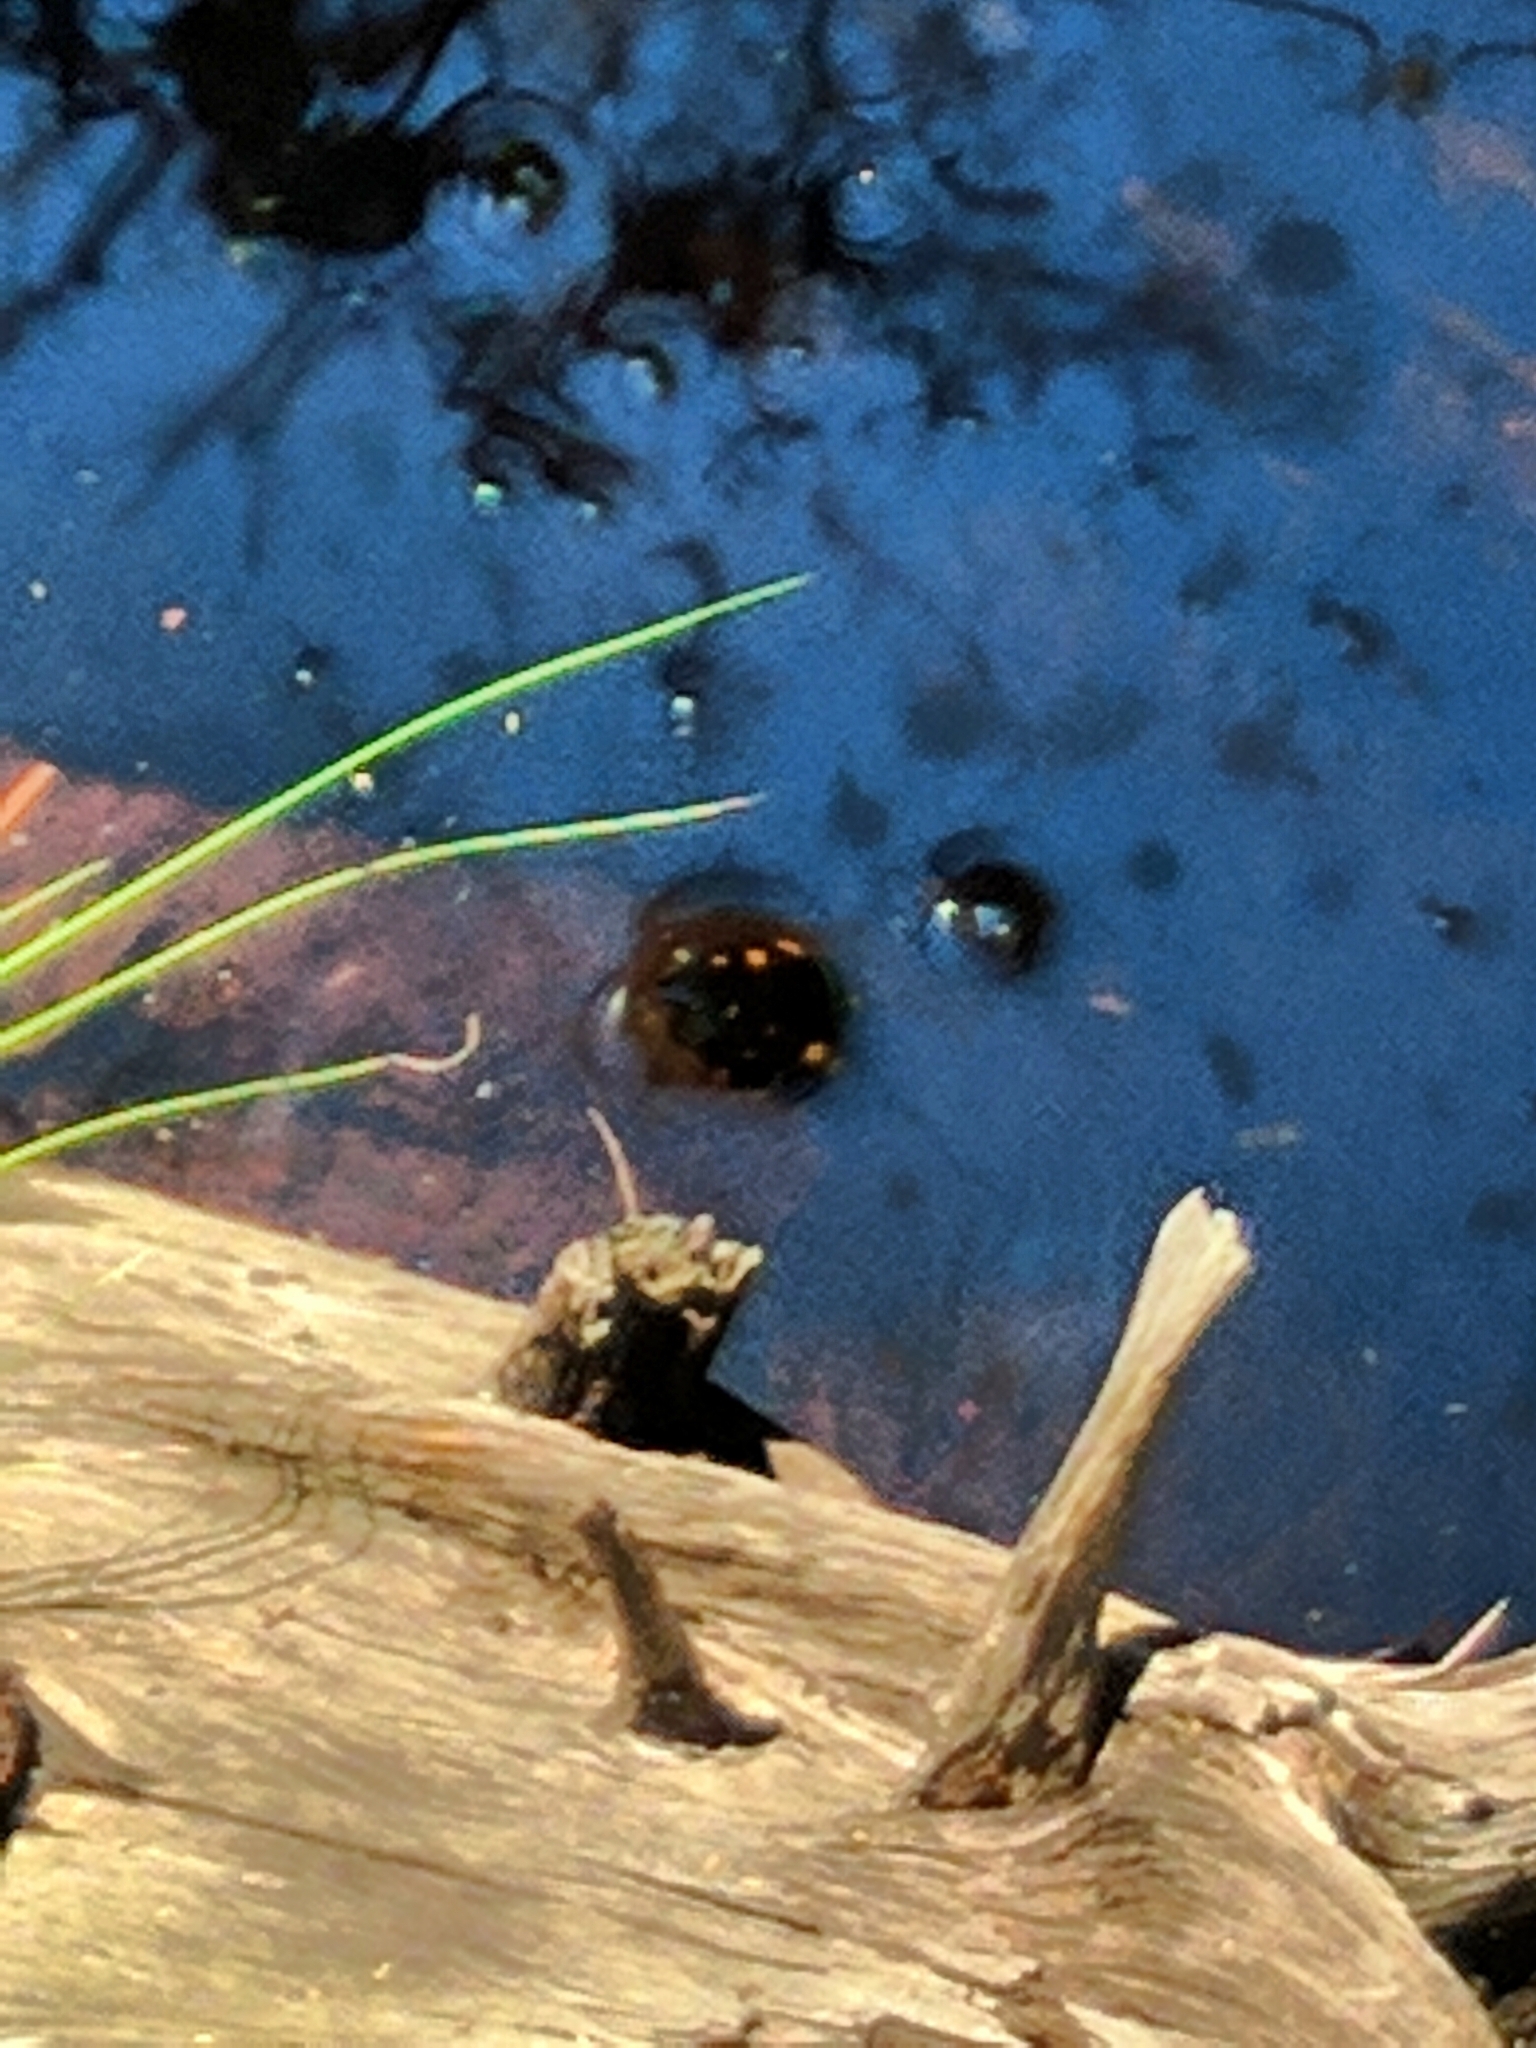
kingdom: Animalia
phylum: Chordata
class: Testudines
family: Emydidae
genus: Clemmys
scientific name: Clemmys guttata
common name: Spotted turtle
